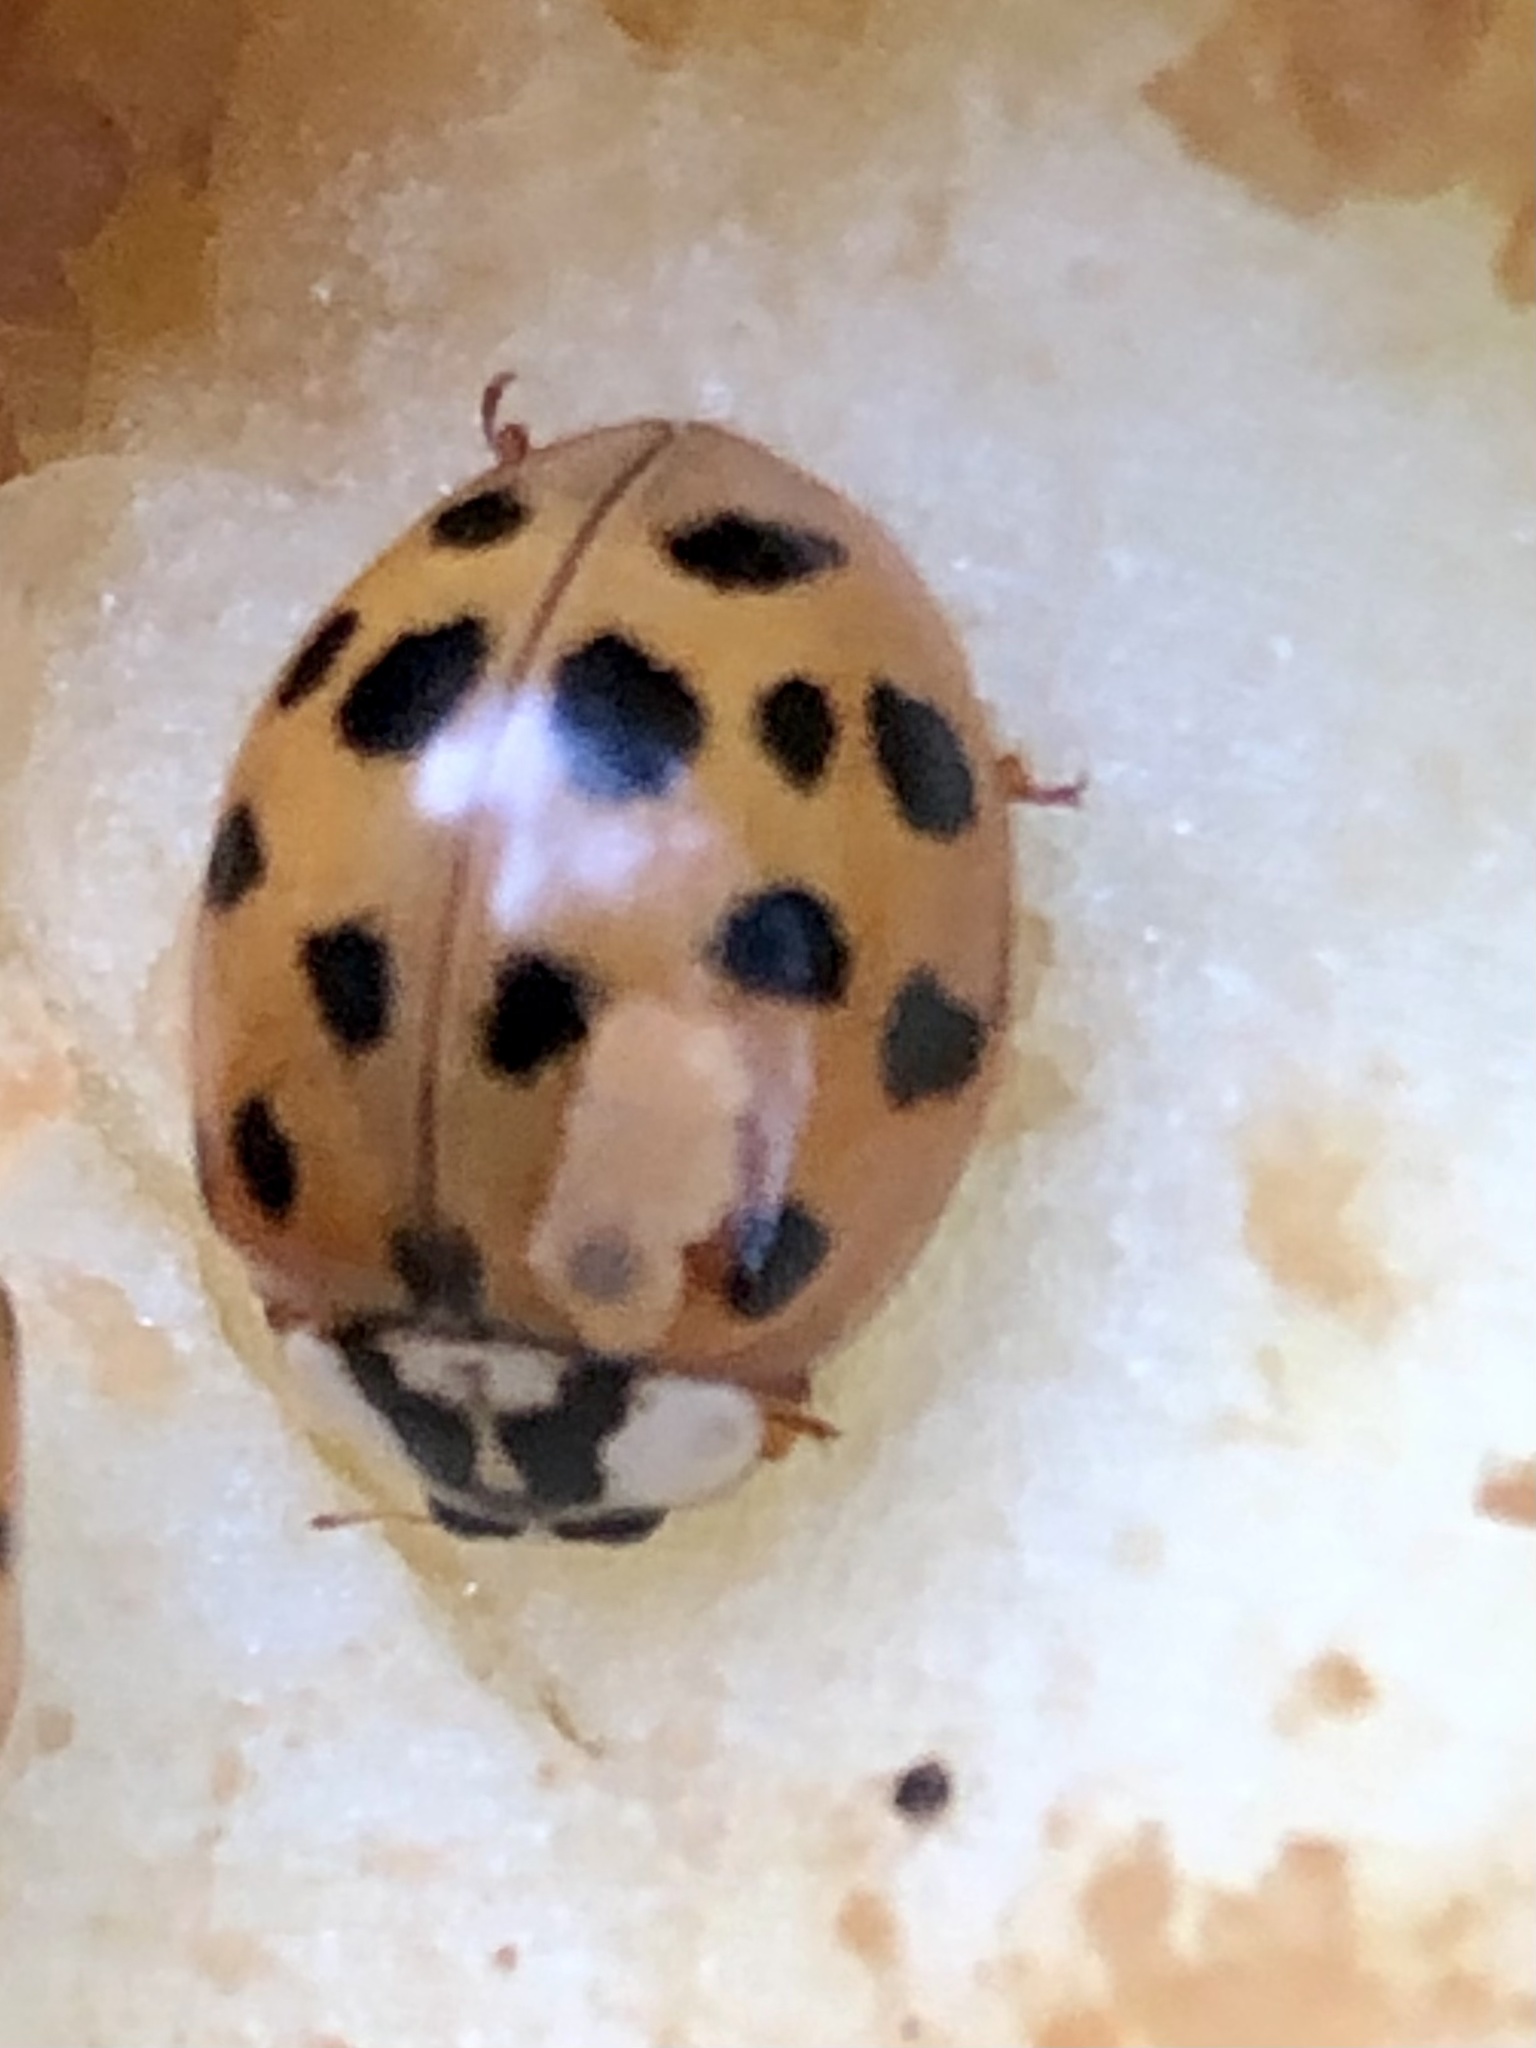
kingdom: Animalia
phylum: Arthropoda
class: Insecta
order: Coleoptera
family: Coccinellidae
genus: Harmonia
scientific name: Harmonia axyridis
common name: Harlequin ladybird
